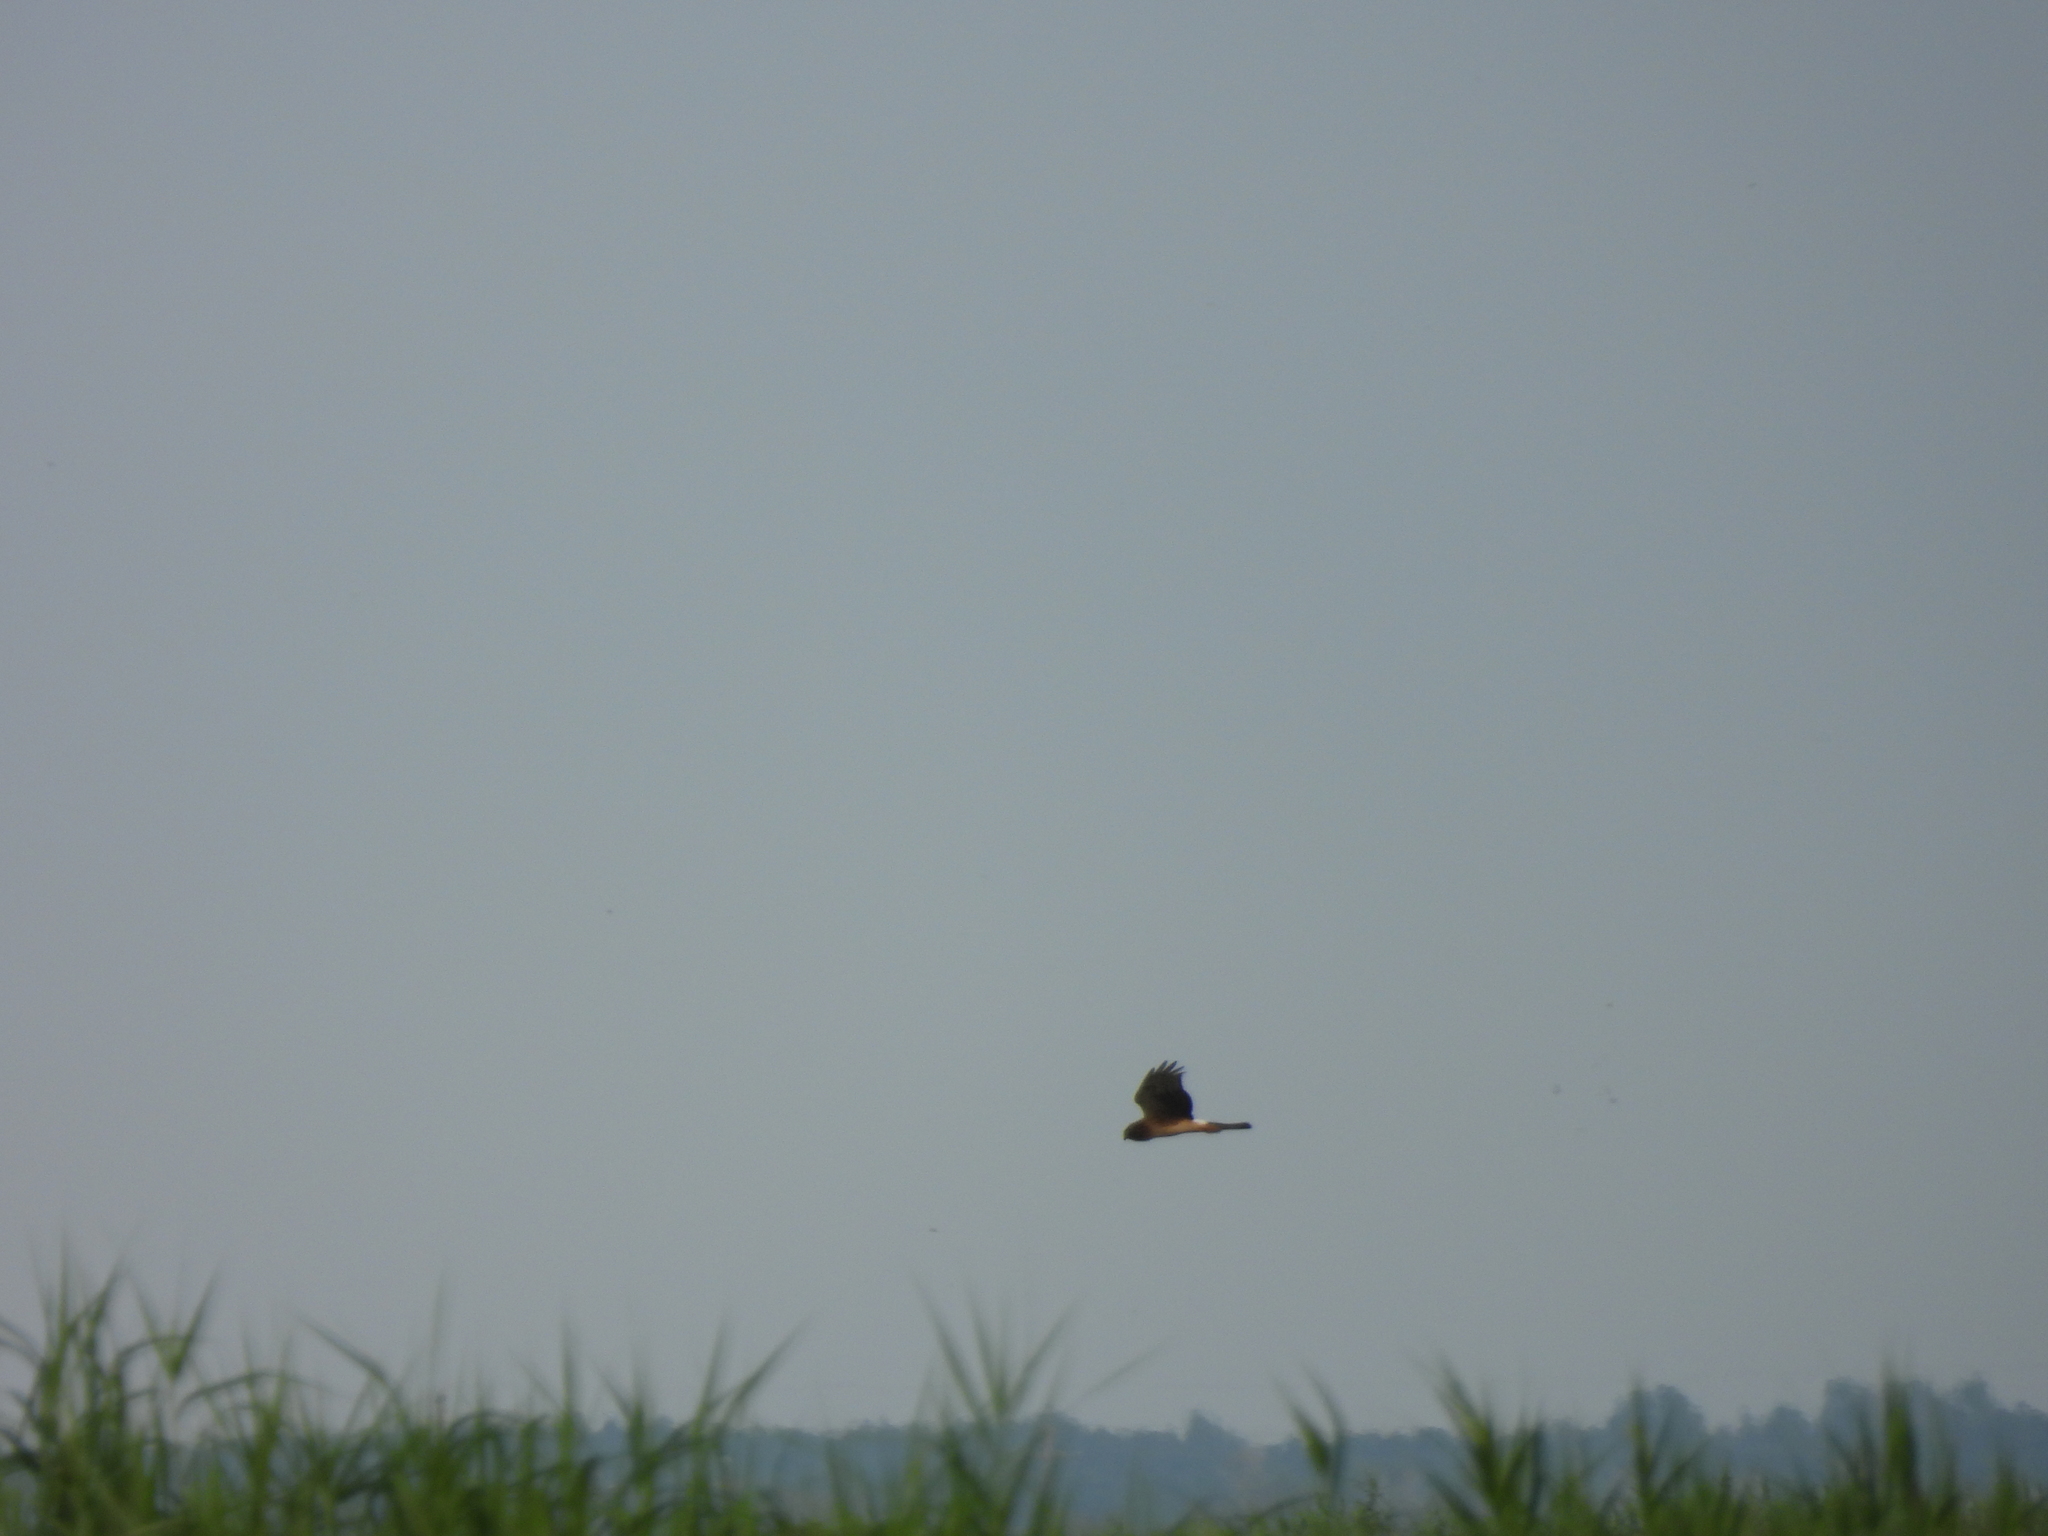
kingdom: Animalia
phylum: Chordata
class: Aves
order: Accipitriformes
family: Accipitridae
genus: Circus
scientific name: Circus cyaneus
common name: Hen harrier
